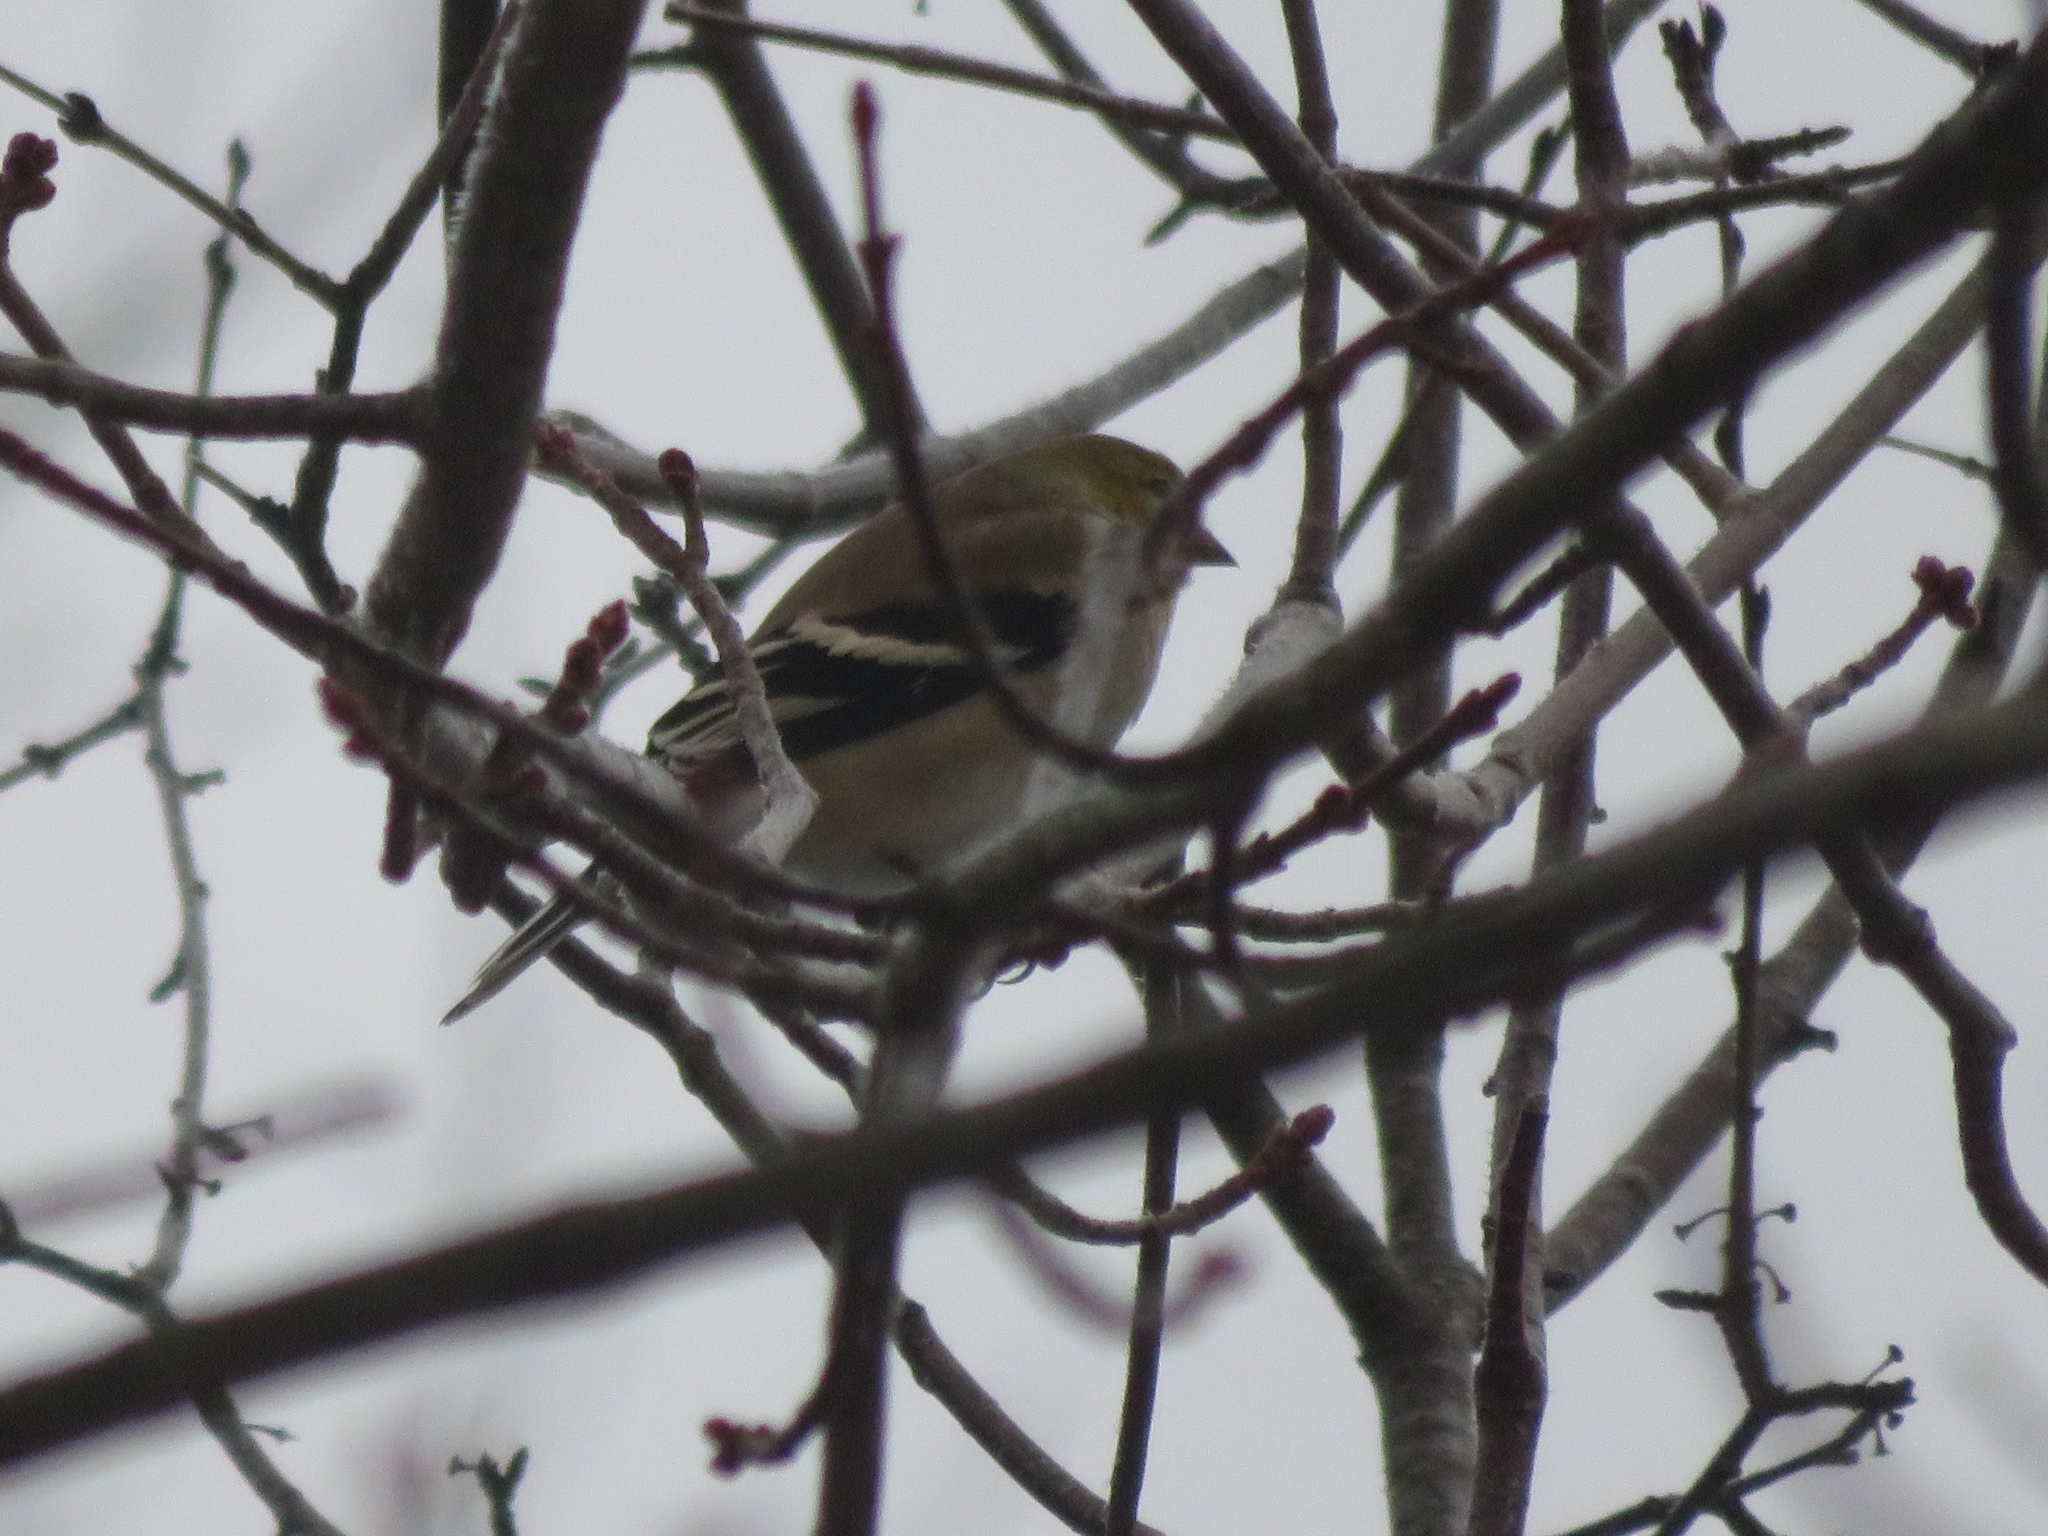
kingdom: Animalia
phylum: Chordata
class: Aves
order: Passeriformes
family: Fringillidae
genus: Spinus
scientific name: Spinus tristis
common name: American goldfinch
